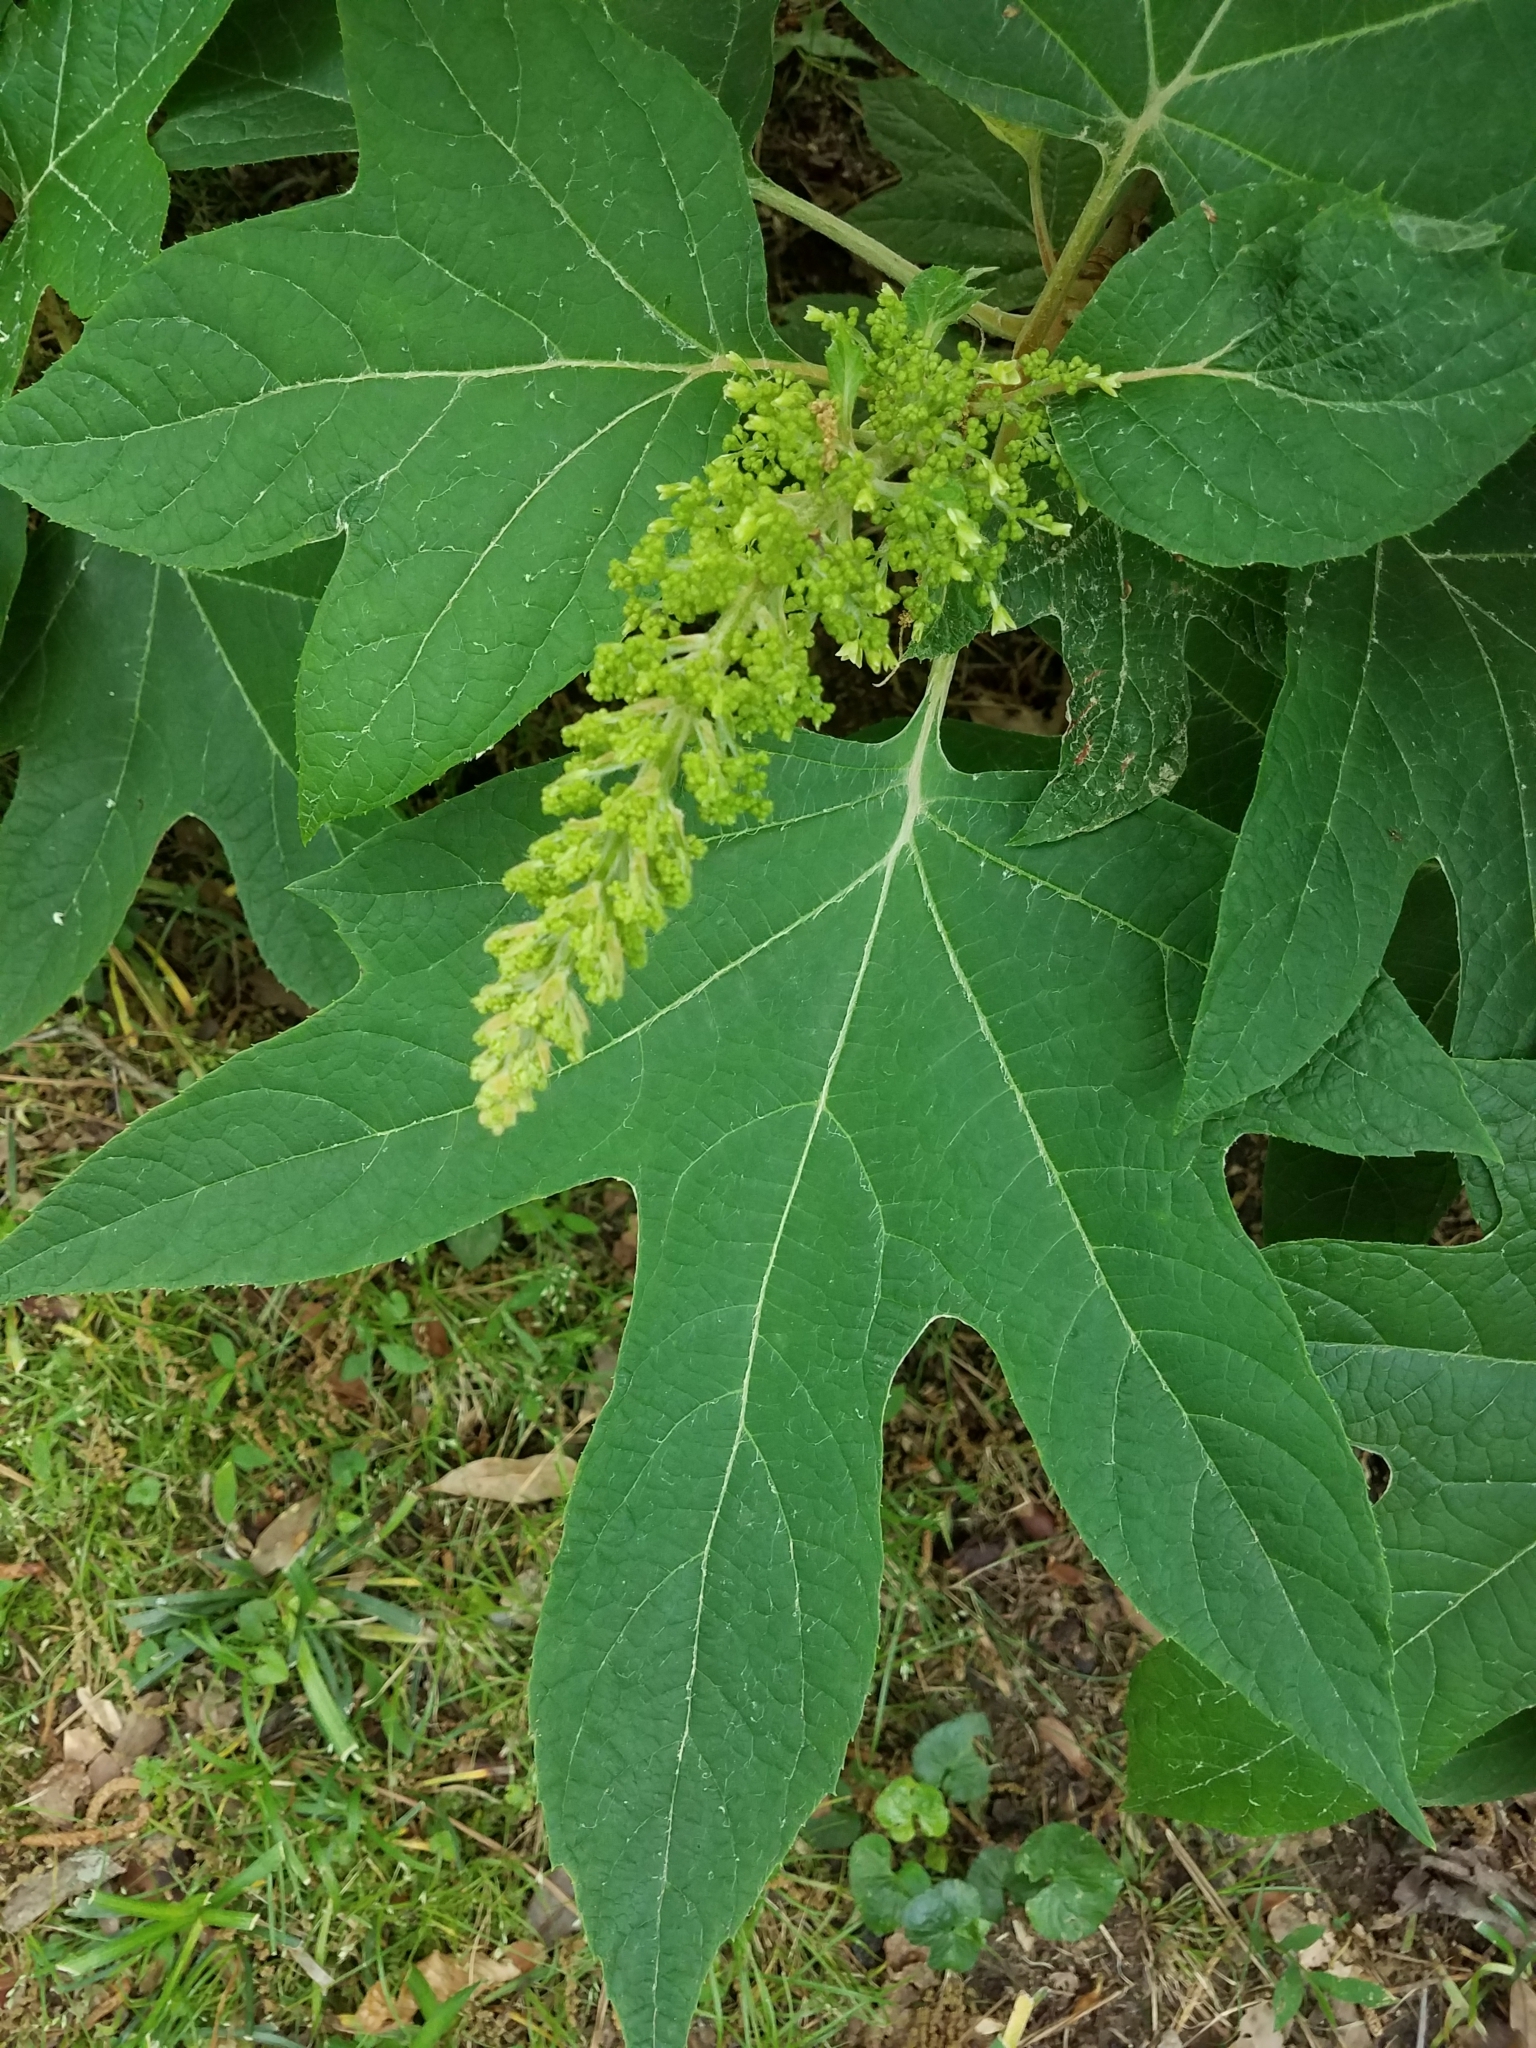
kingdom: Plantae
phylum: Tracheophyta
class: Magnoliopsida
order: Cornales
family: Hydrangeaceae
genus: Hydrangea
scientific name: Hydrangea quercifolia
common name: Oak-leaf hydrangea
